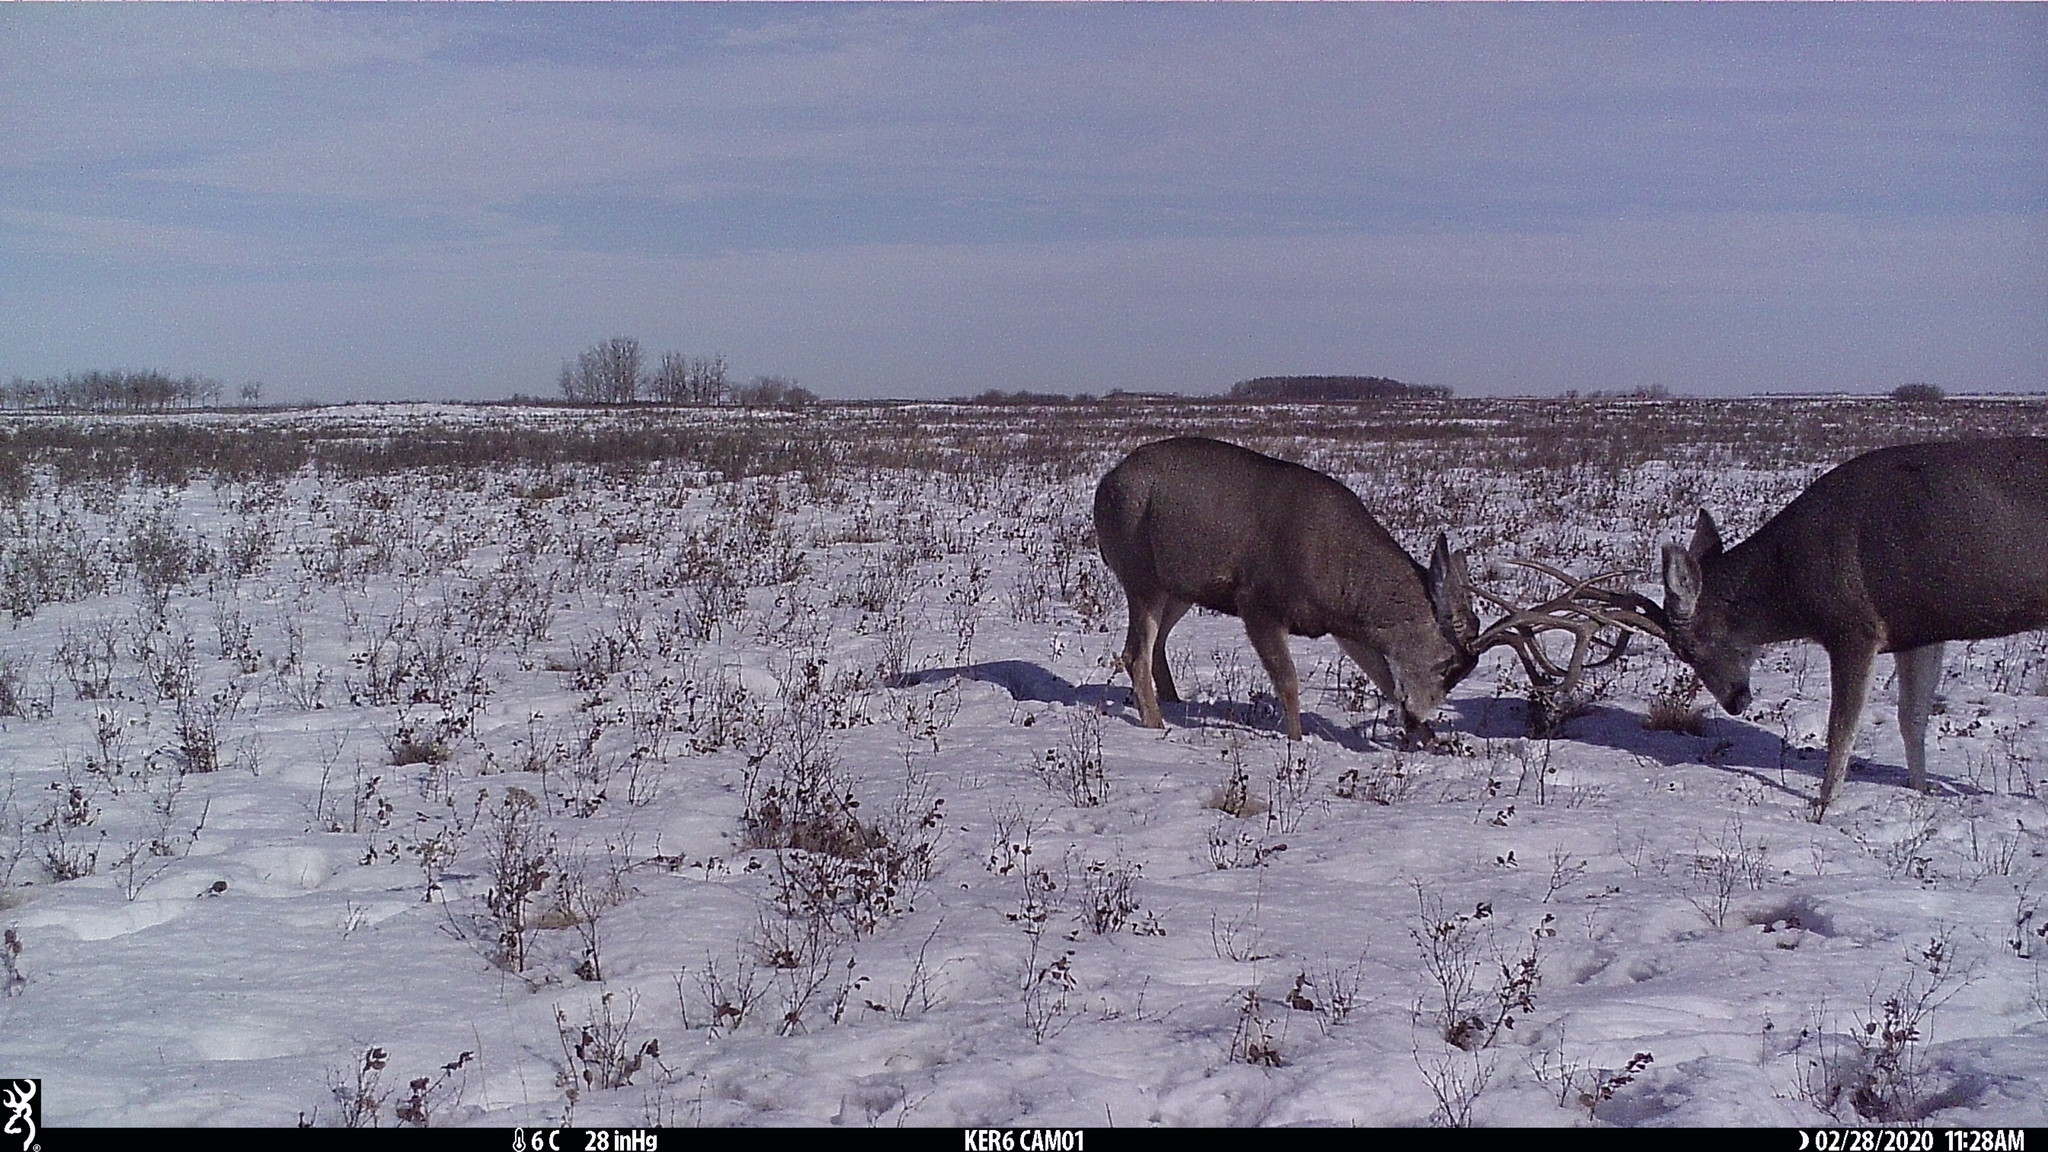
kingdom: Animalia
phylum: Chordata
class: Mammalia
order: Artiodactyla
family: Cervidae
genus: Odocoileus
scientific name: Odocoileus hemionus
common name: Mule deer
